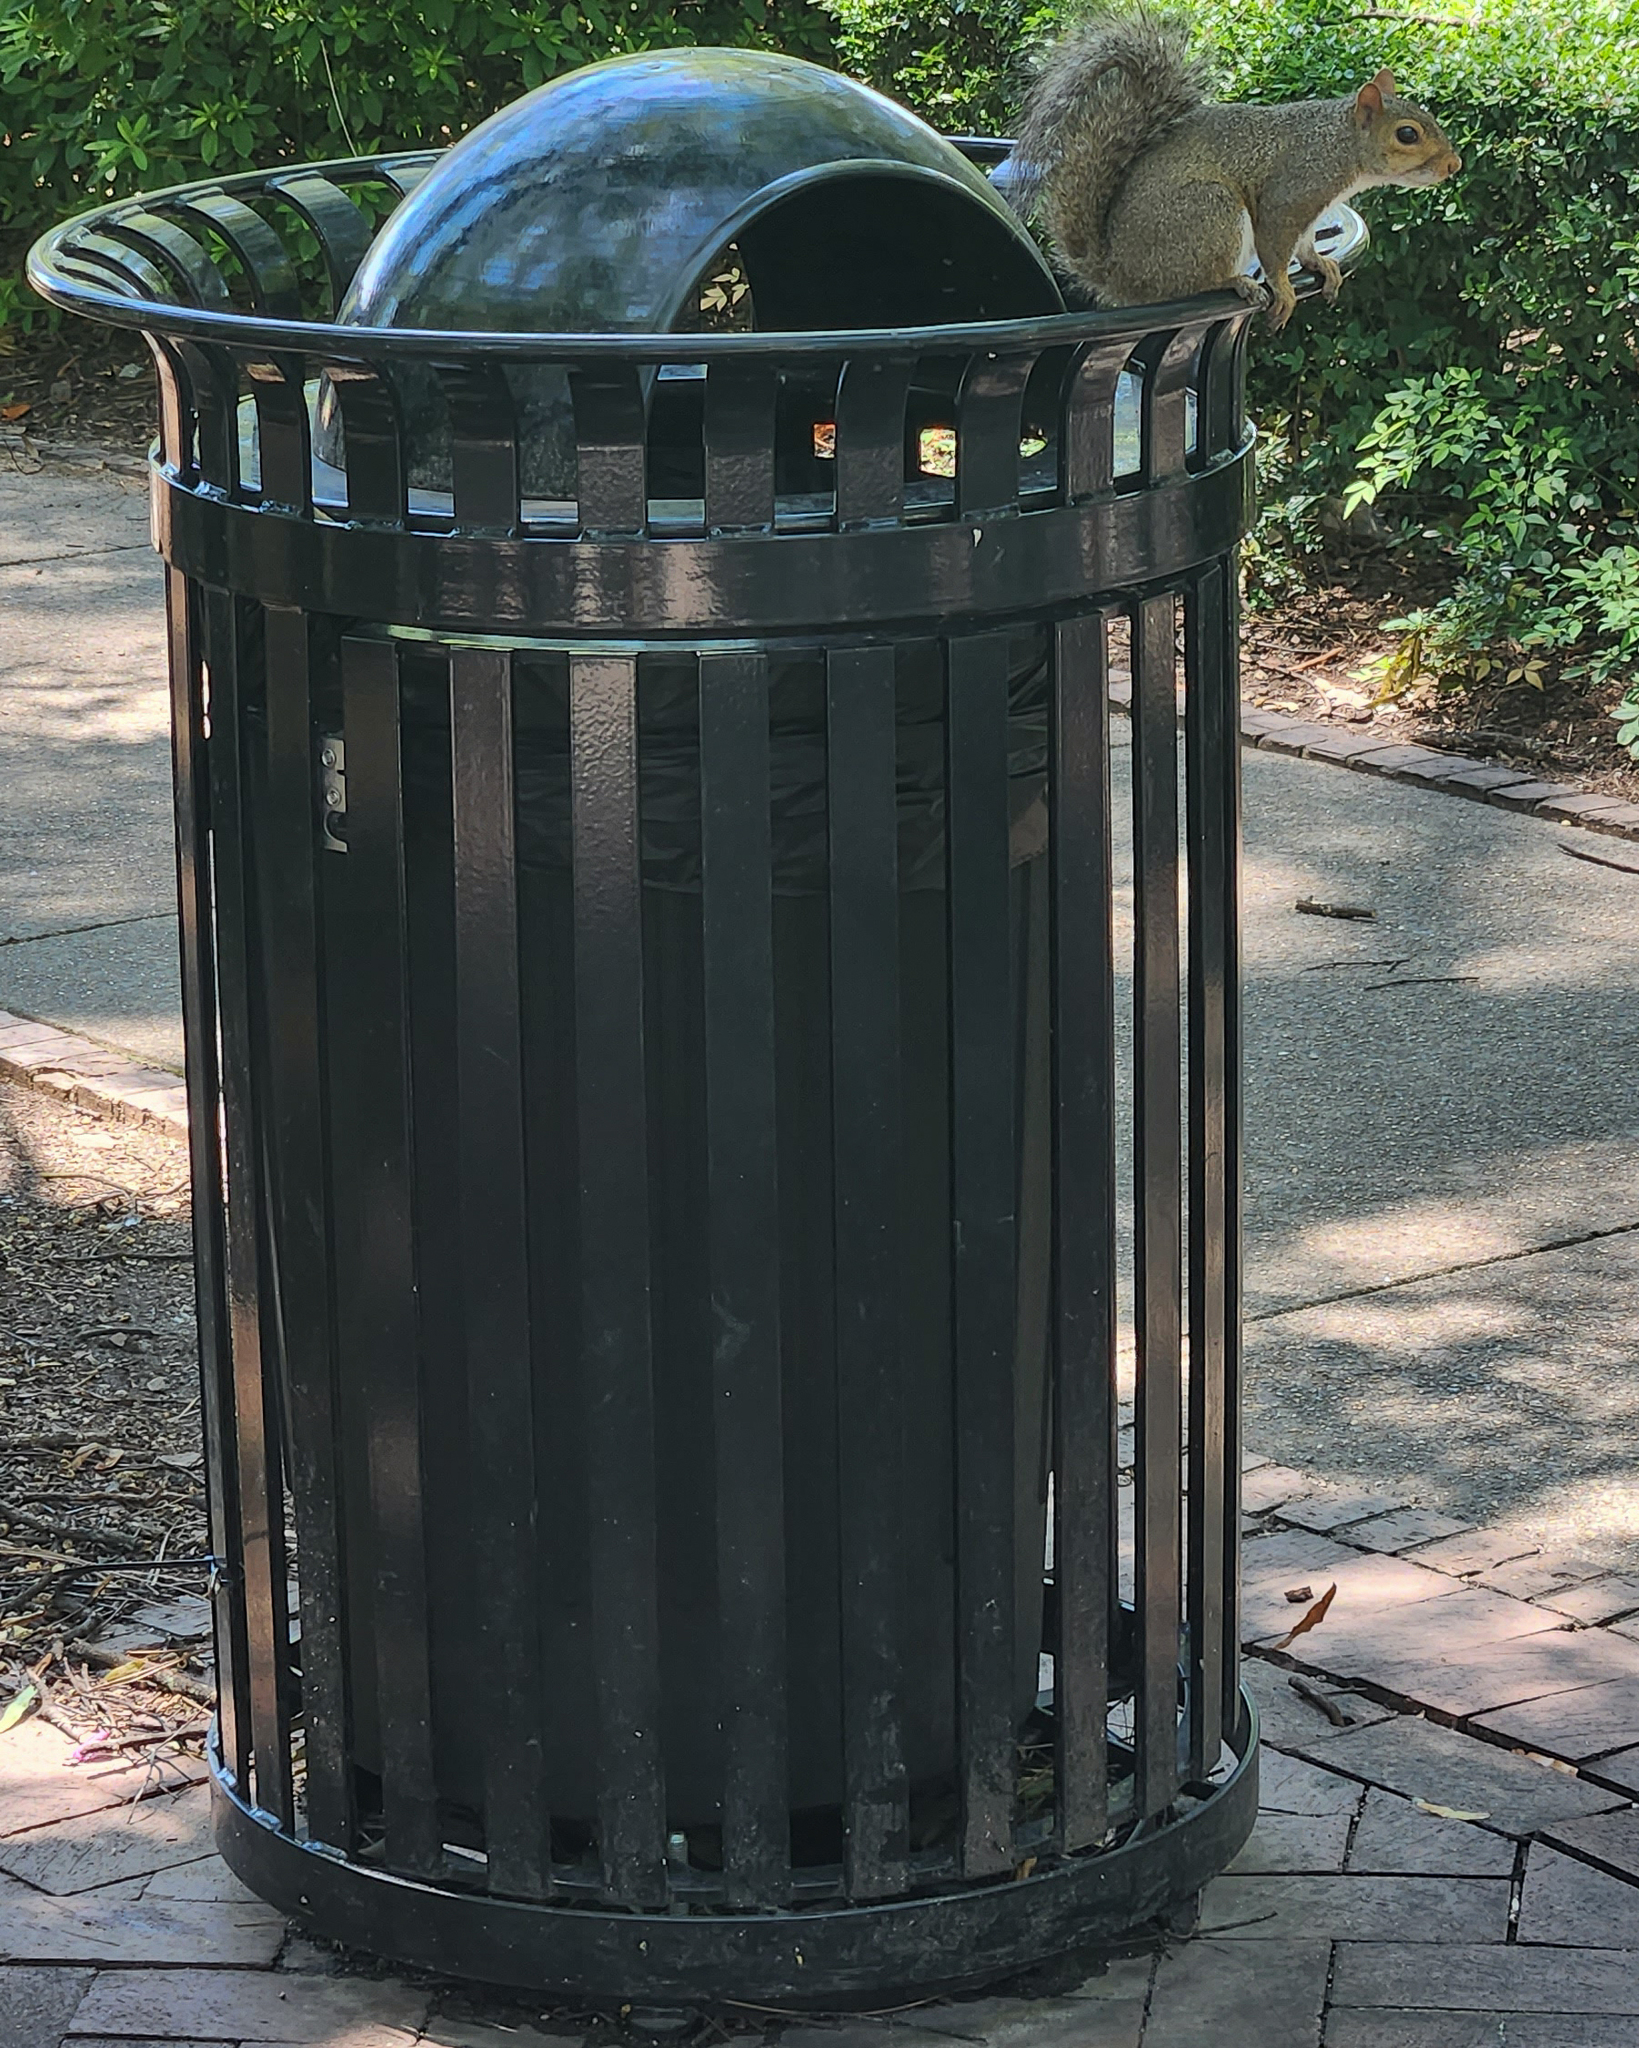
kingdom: Animalia
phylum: Chordata
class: Mammalia
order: Rodentia
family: Sciuridae
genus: Sciurus
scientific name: Sciurus carolinensis
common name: Eastern gray squirrel
